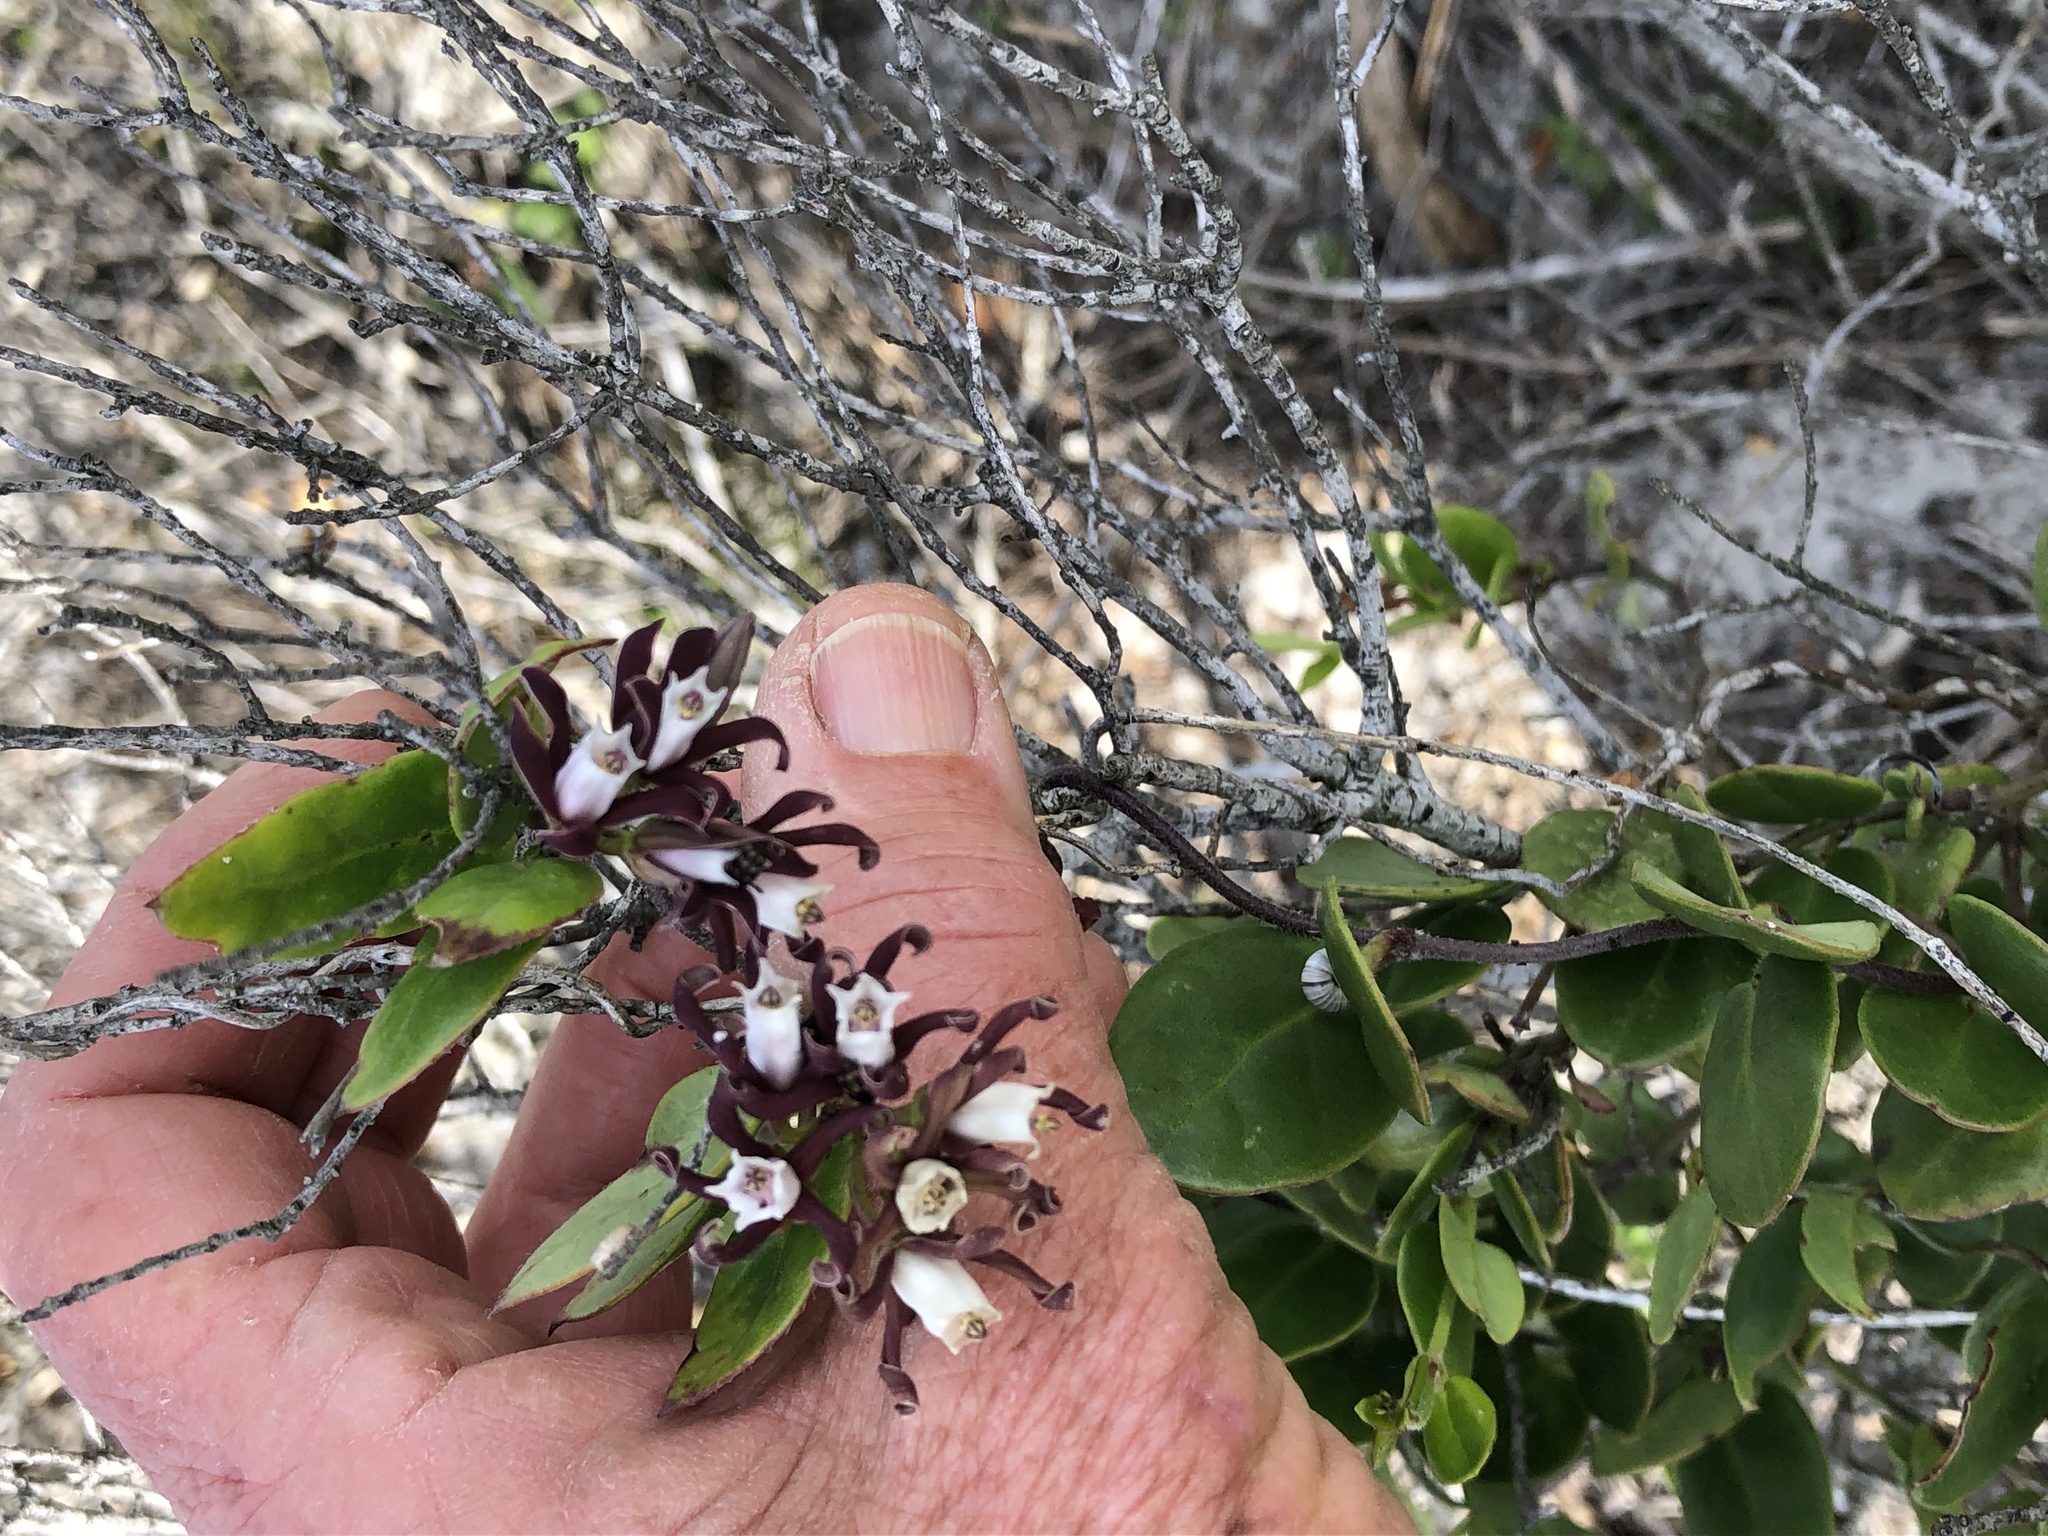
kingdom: Plantae
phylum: Tracheophyta
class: Magnoliopsida
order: Gentianales
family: Apocynaceae
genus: Cynanchum
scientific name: Cynanchum africanum
